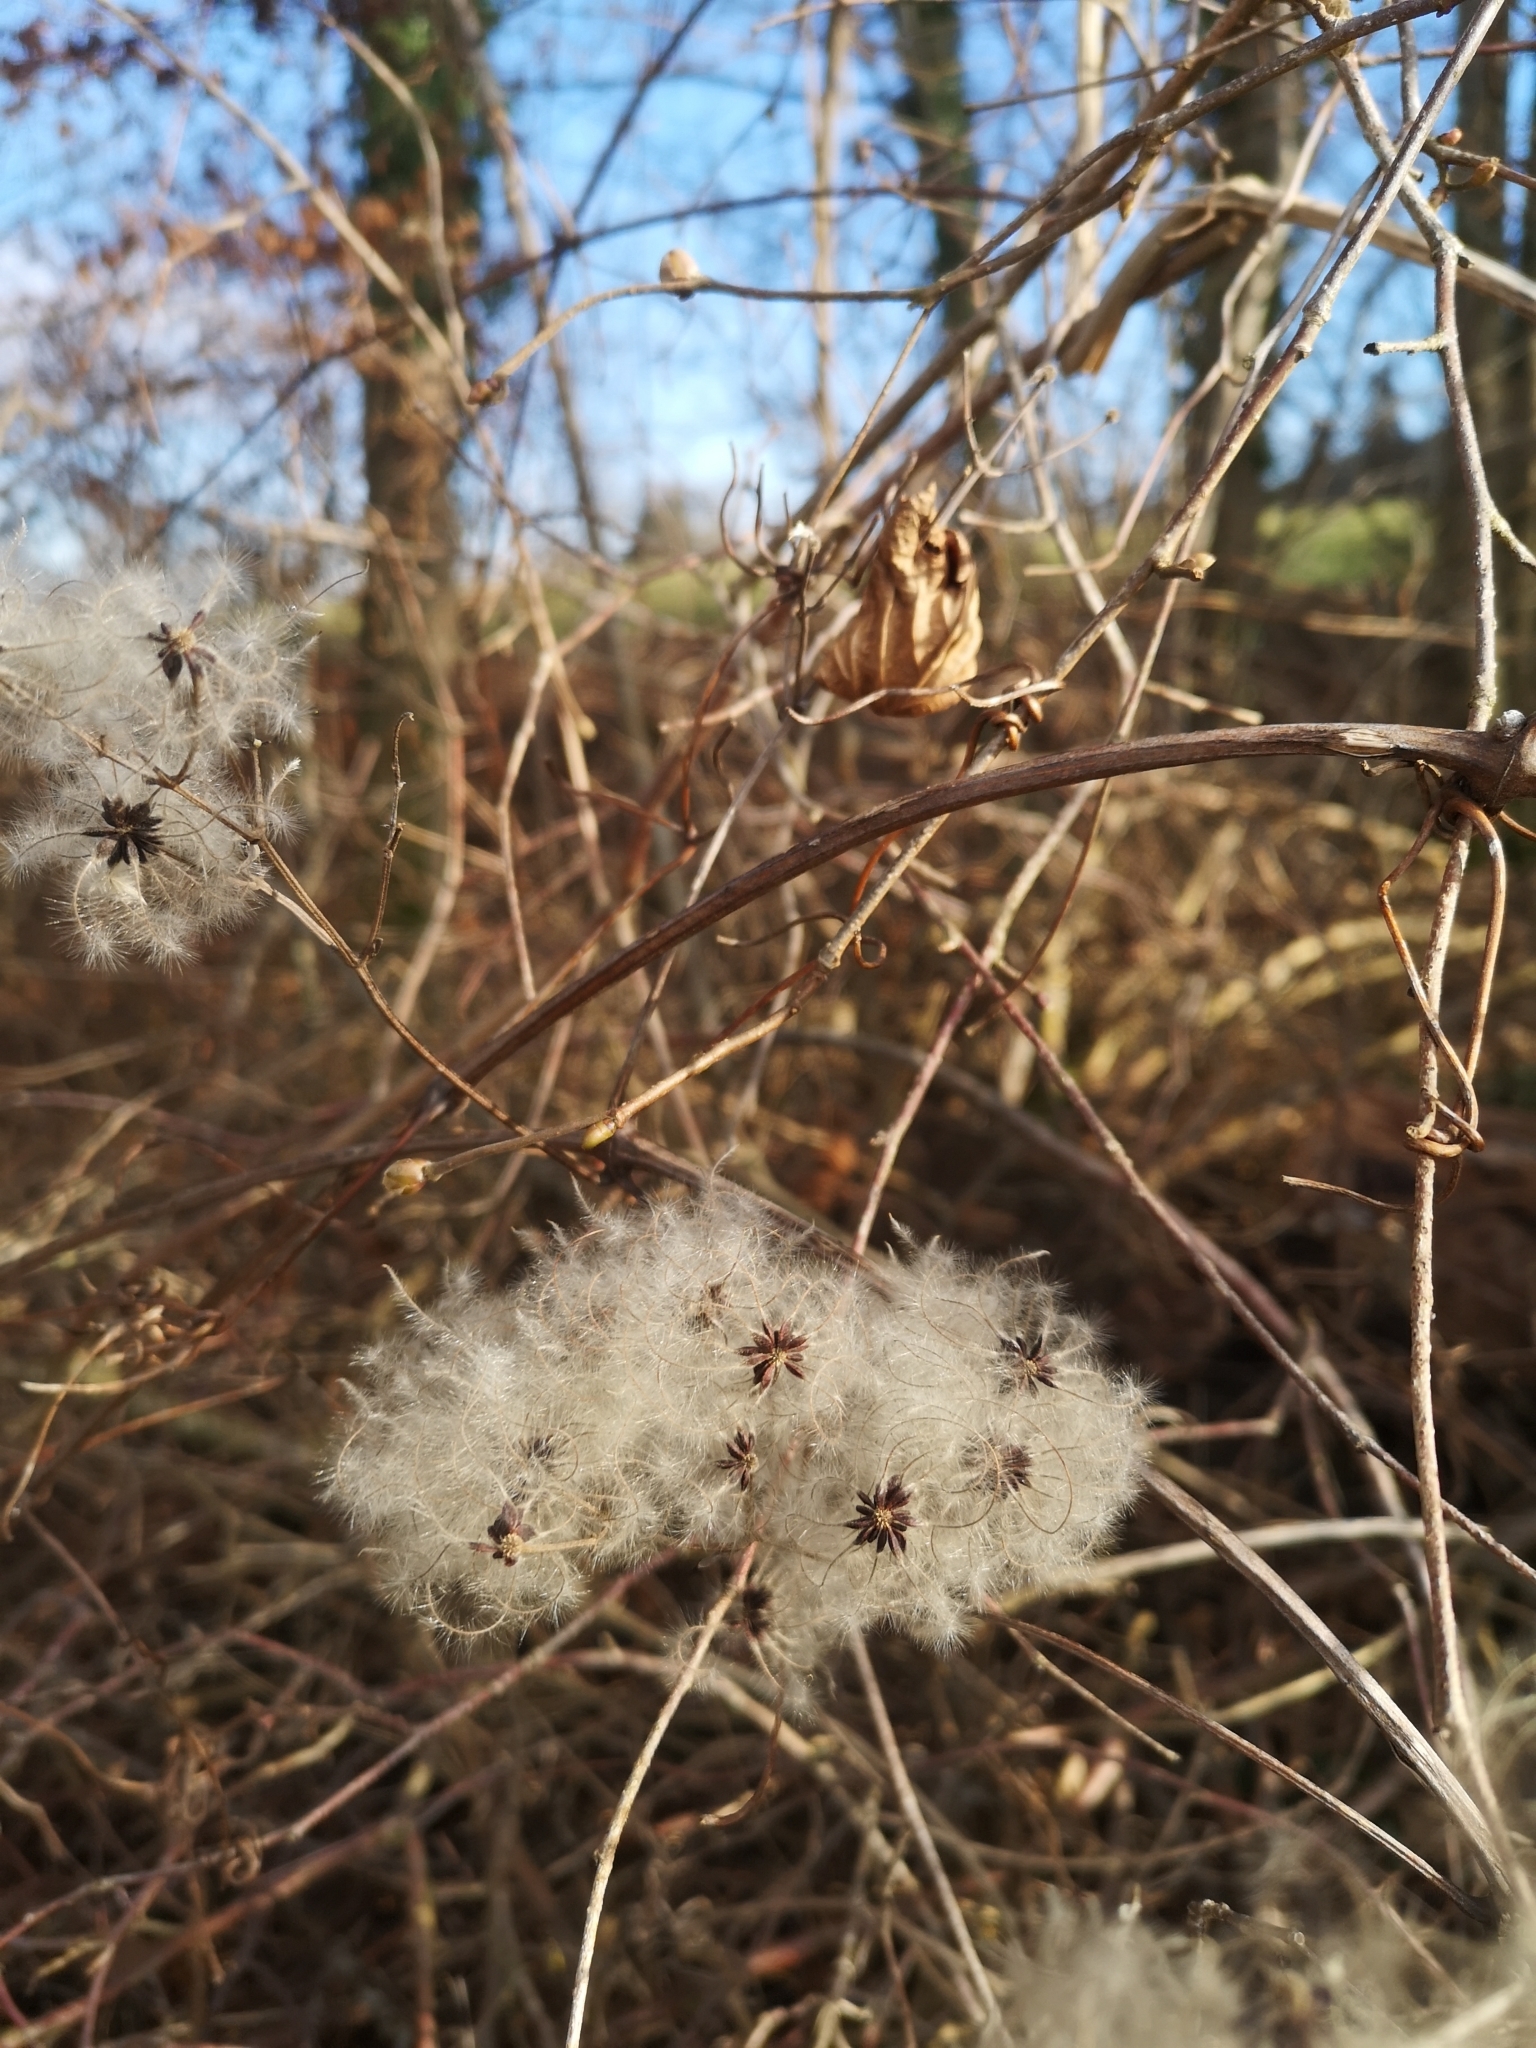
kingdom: Plantae
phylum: Tracheophyta
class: Magnoliopsida
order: Ranunculales
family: Ranunculaceae
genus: Clematis
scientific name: Clematis vitalba
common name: Evergreen clematis
